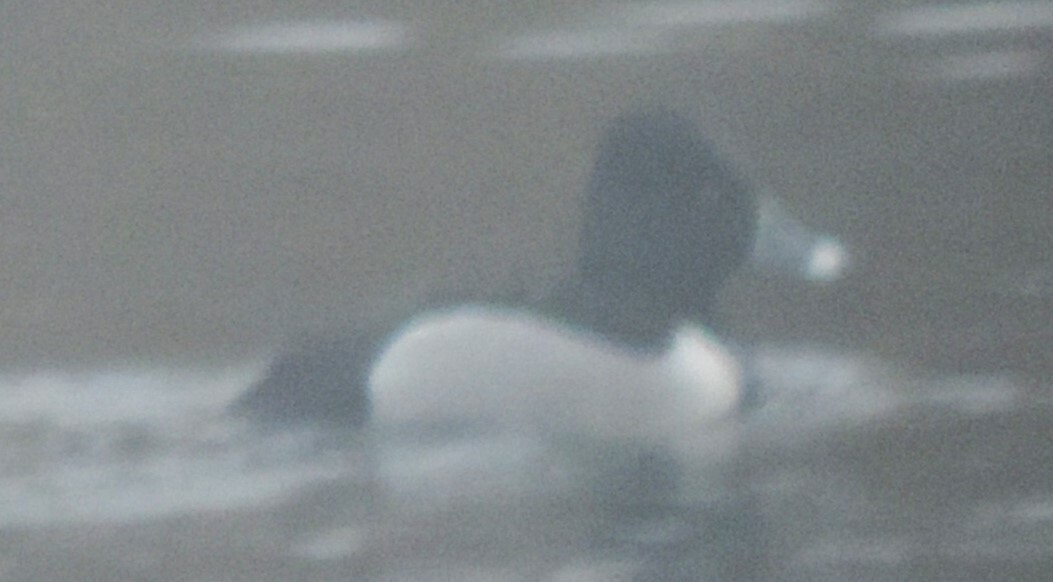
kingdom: Animalia
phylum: Chordata
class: Aves
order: Anseriformes
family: Anatidae
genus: Aythya
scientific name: Aythya collaris
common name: Ring-necked duck
